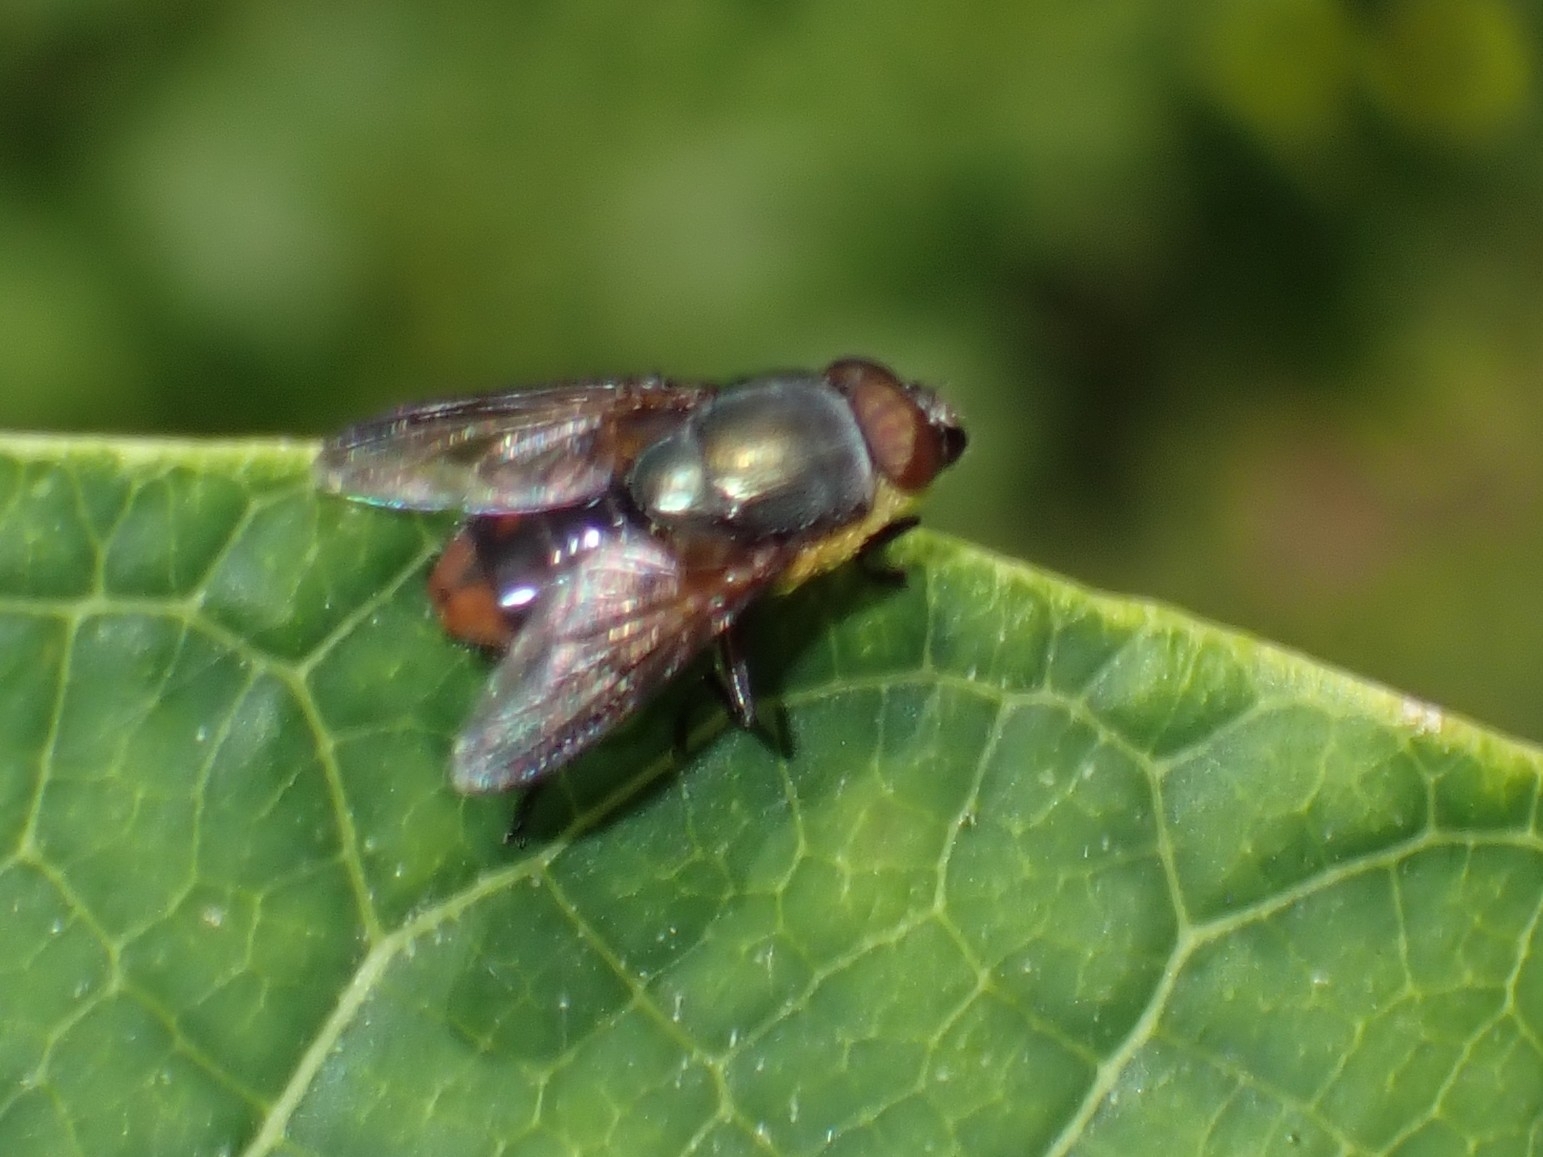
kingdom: Animalia
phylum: Arthropoda
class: Insecta
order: Diptera
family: Calliphoridae
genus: Idiellopsis
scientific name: Idiellopsis xanthogaster
